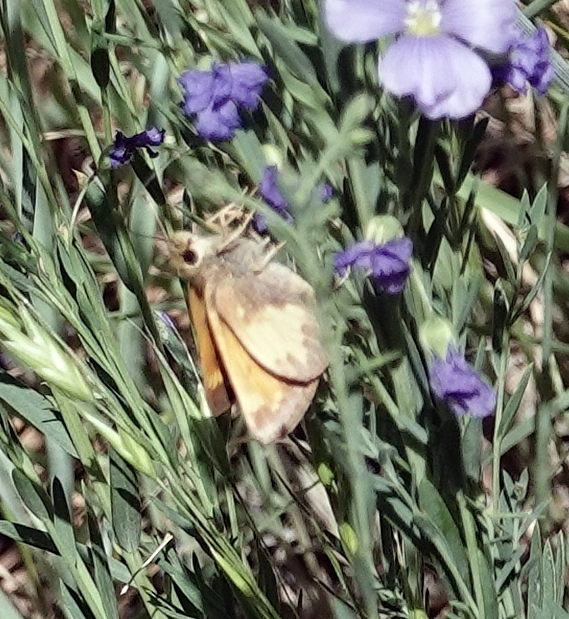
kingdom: Animalia
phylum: Arthropoda
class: Insecta
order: Lepidoptera
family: Hesperiidae
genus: Lon
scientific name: Lon hobomok
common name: Hobomok skipper
